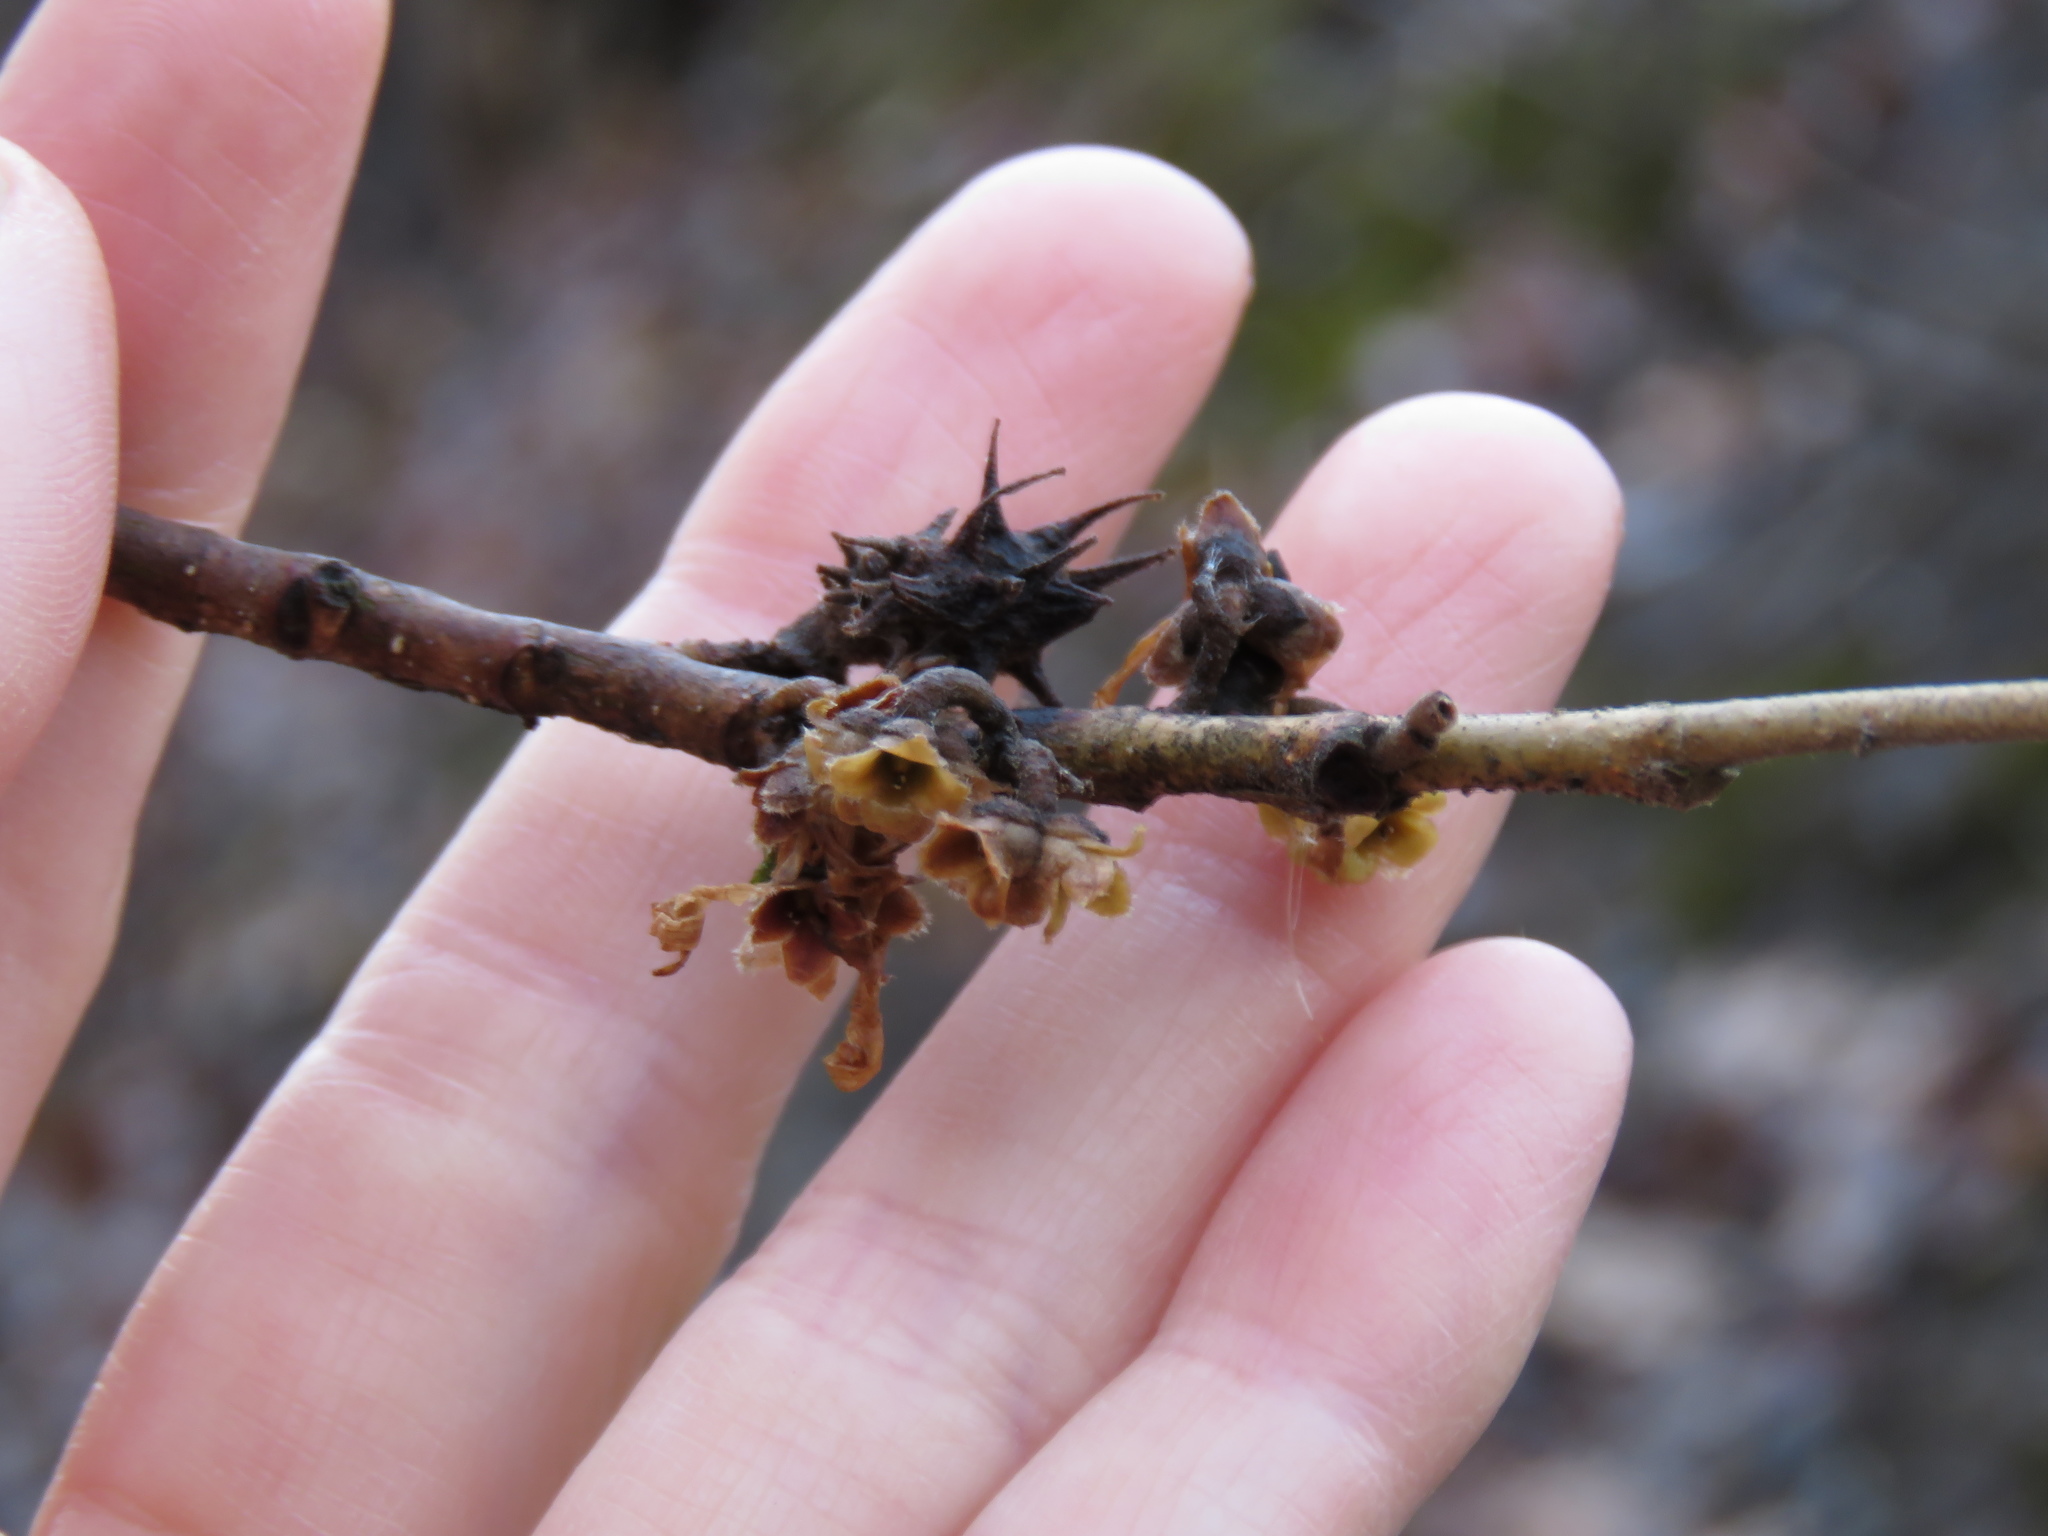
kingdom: Plantae
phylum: Tracheophyta
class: Magnoliopsida
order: Saxifragales
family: Hamamelidaceae
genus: Hamamelis
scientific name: Hamamelis virginiana
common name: Witch-hazel
